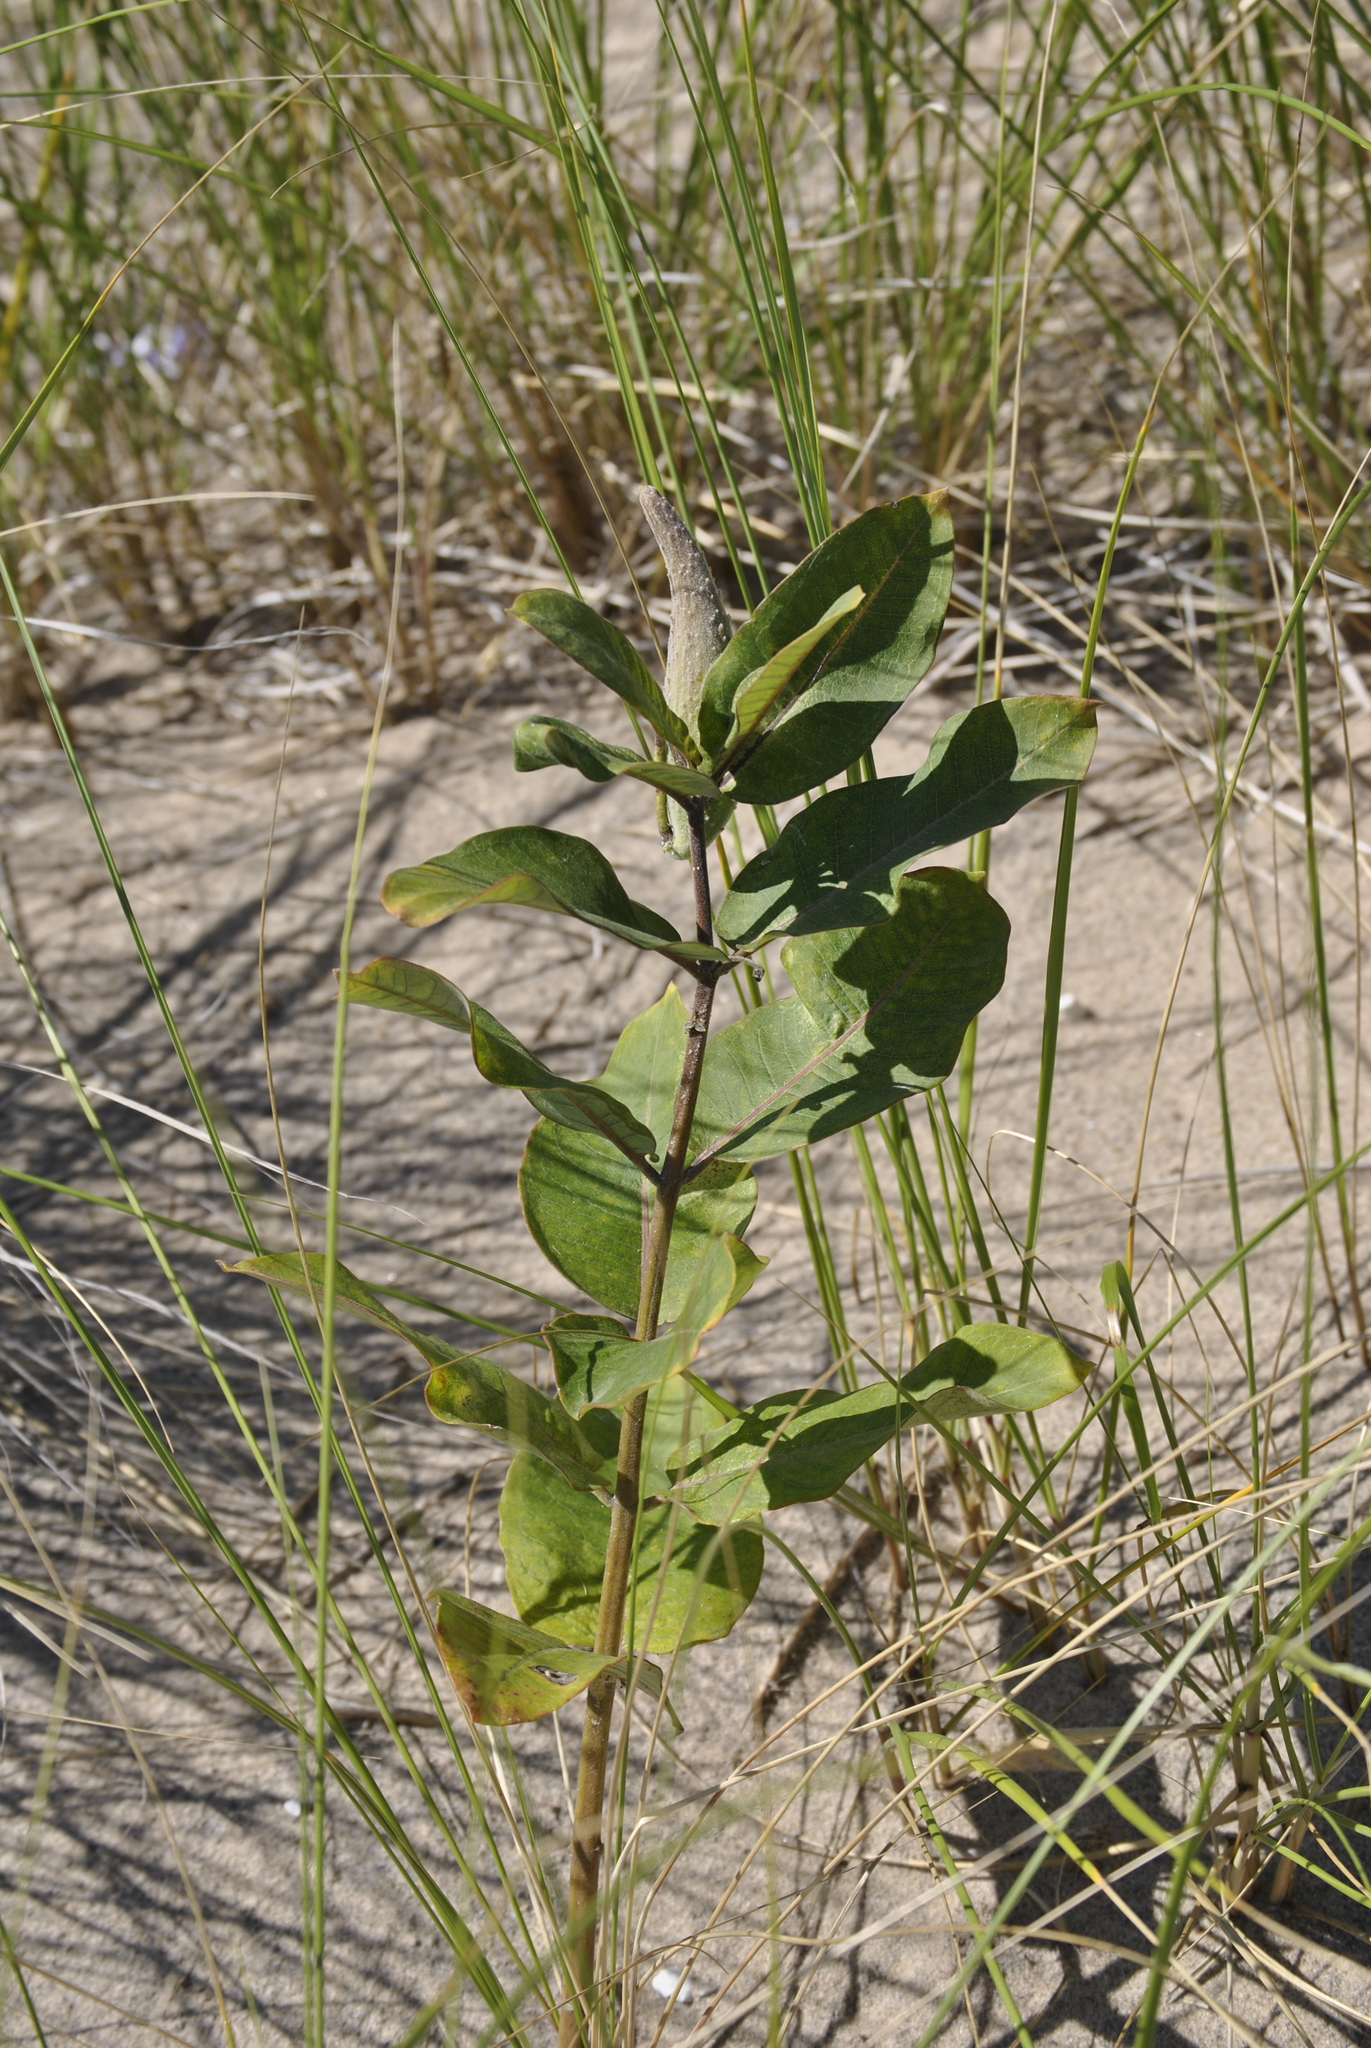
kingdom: Plantae
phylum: Tracheophyta
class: Magnoliopsida
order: Gentianales
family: Apocynaceae
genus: Asclepias
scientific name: Asclepias syriaca
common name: Common milkweed
